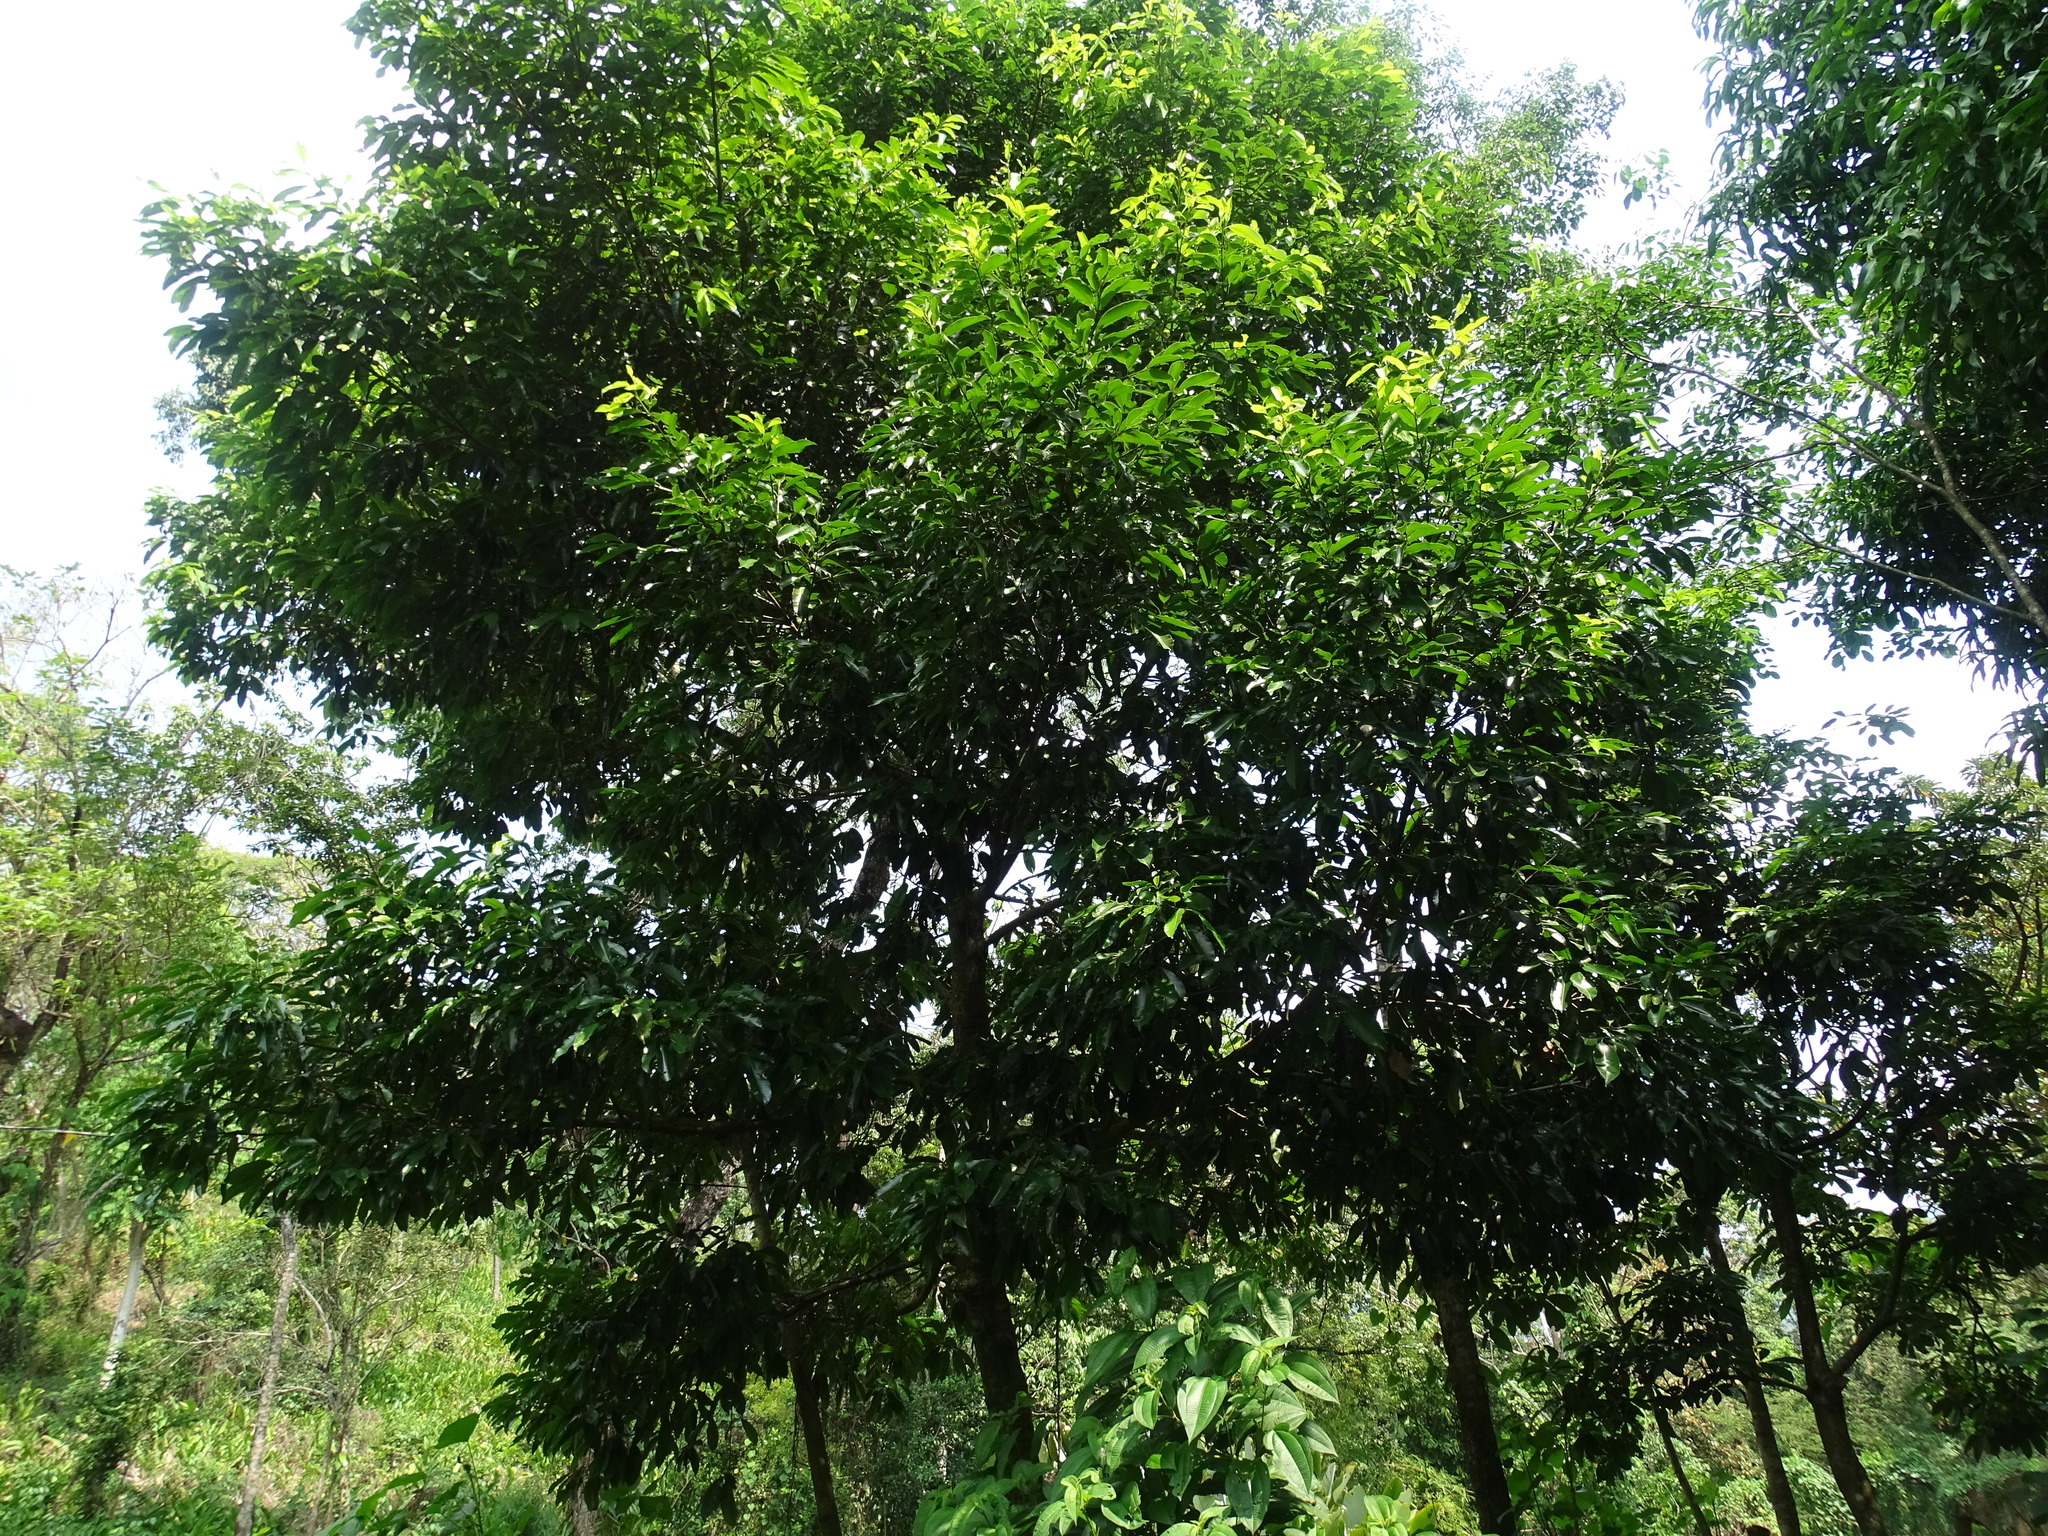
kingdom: Plantae
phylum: Tracheophyta
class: Magnoliopsida
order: Fabales
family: Fabaceae
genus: Ormosia
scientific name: Ormosia macrocalyx
